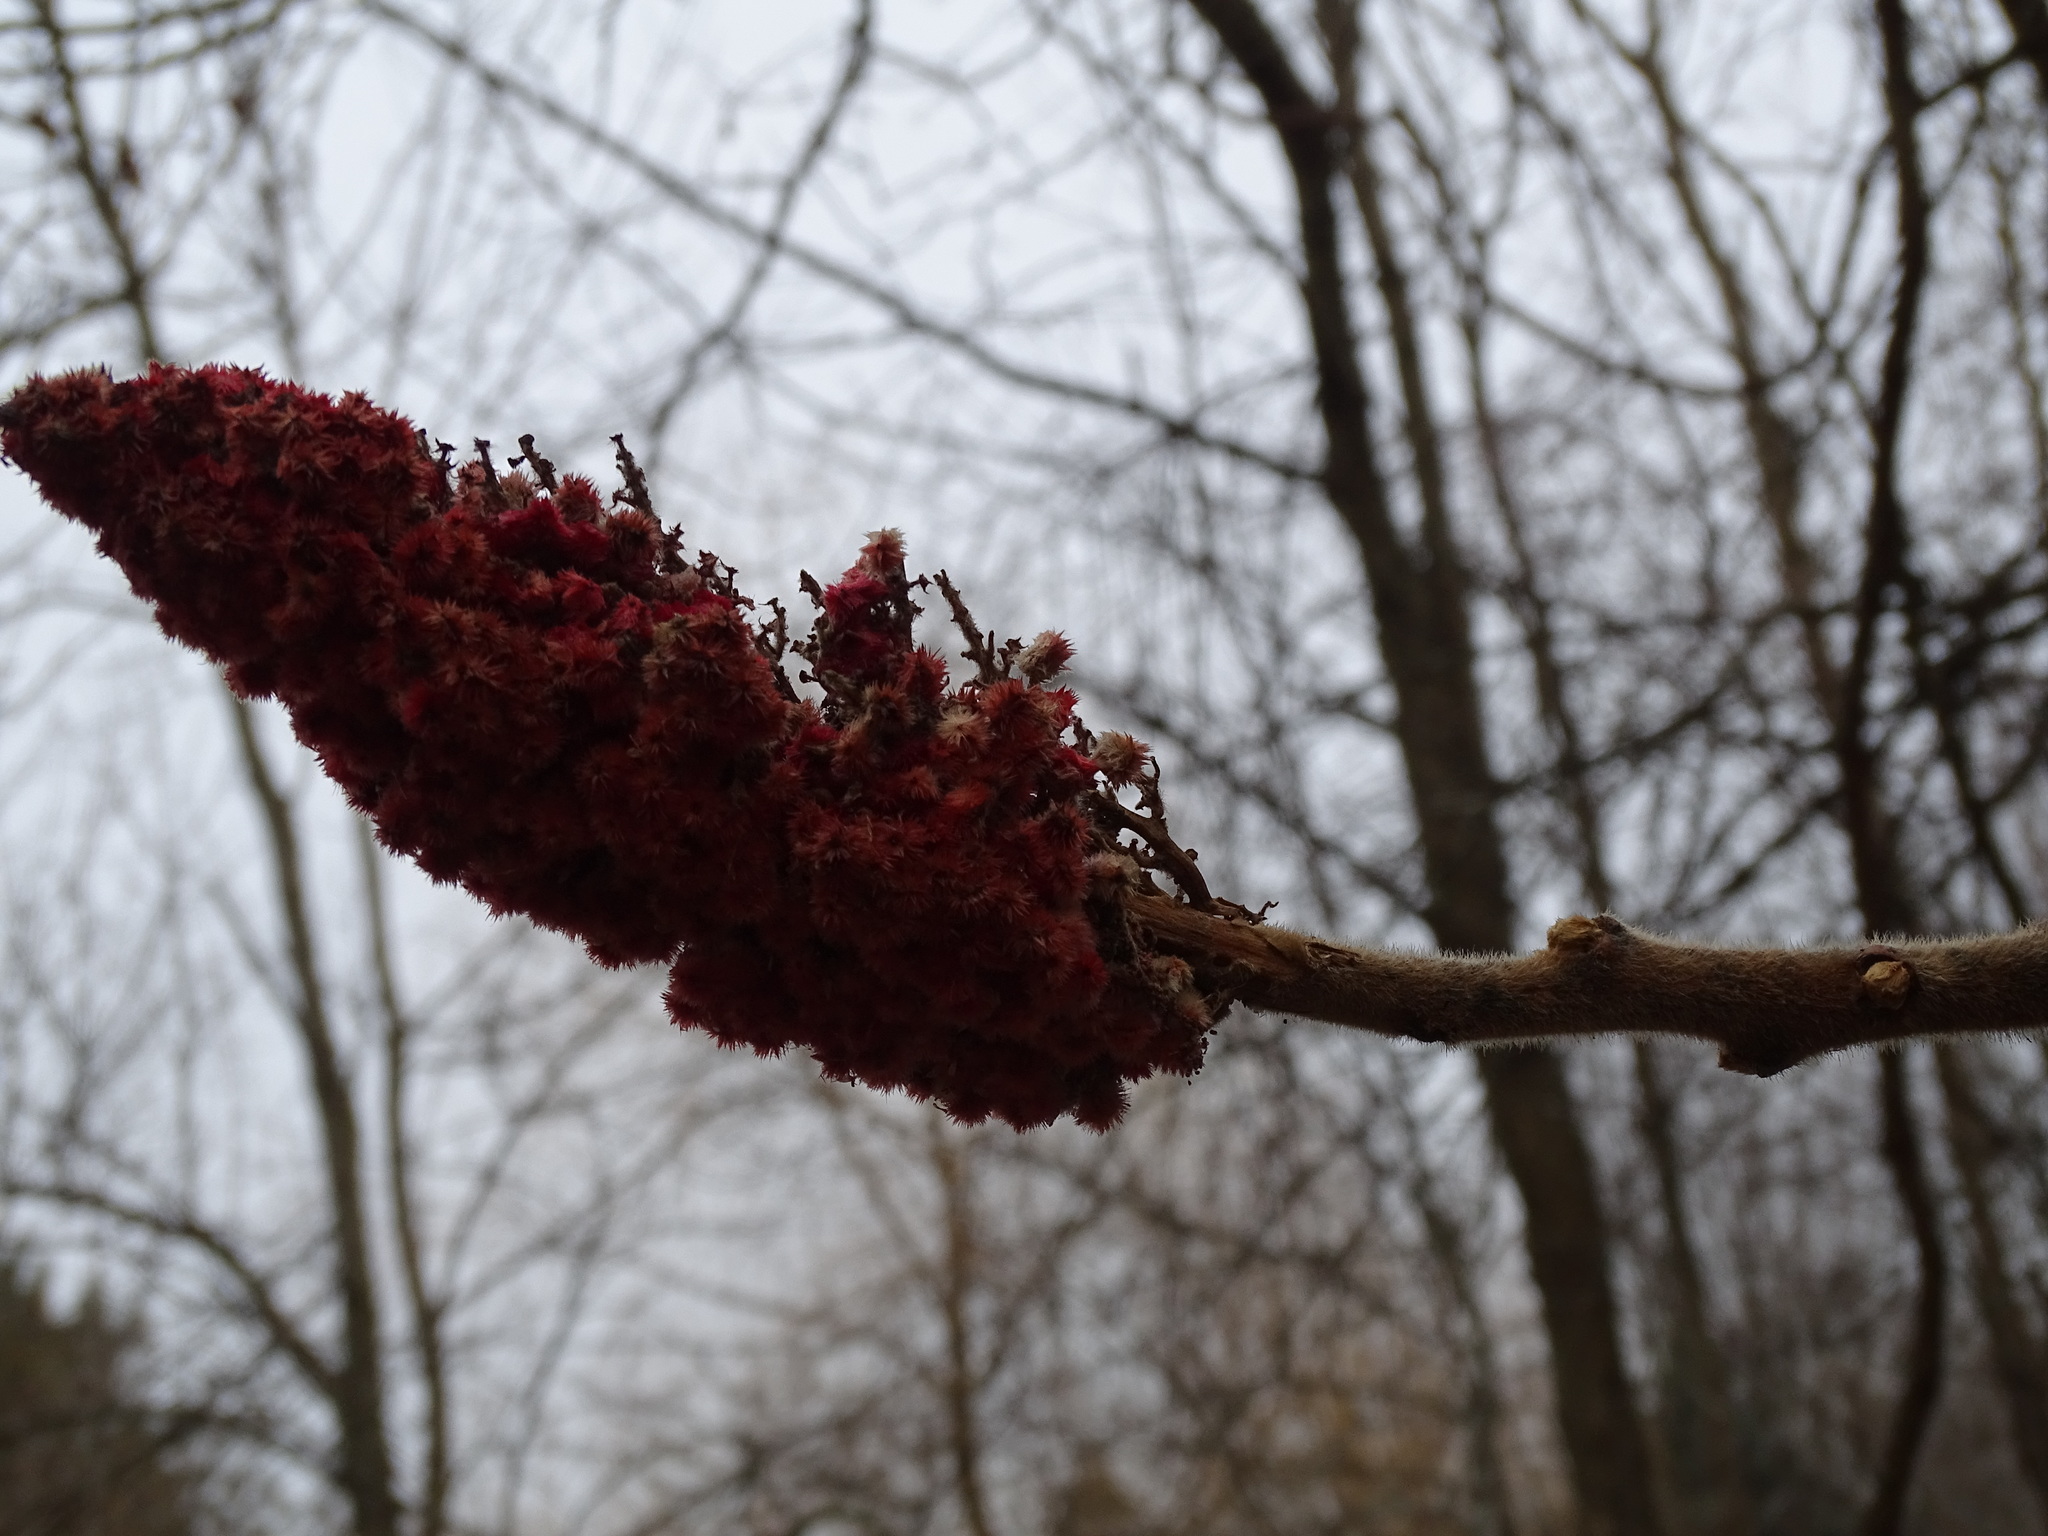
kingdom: Plantae
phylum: Tracheophyta
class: Magnoliopsida
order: Sapindales
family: Anacardiaceae
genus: Rhus
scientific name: Rhus typhina
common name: Staghorn sumac
